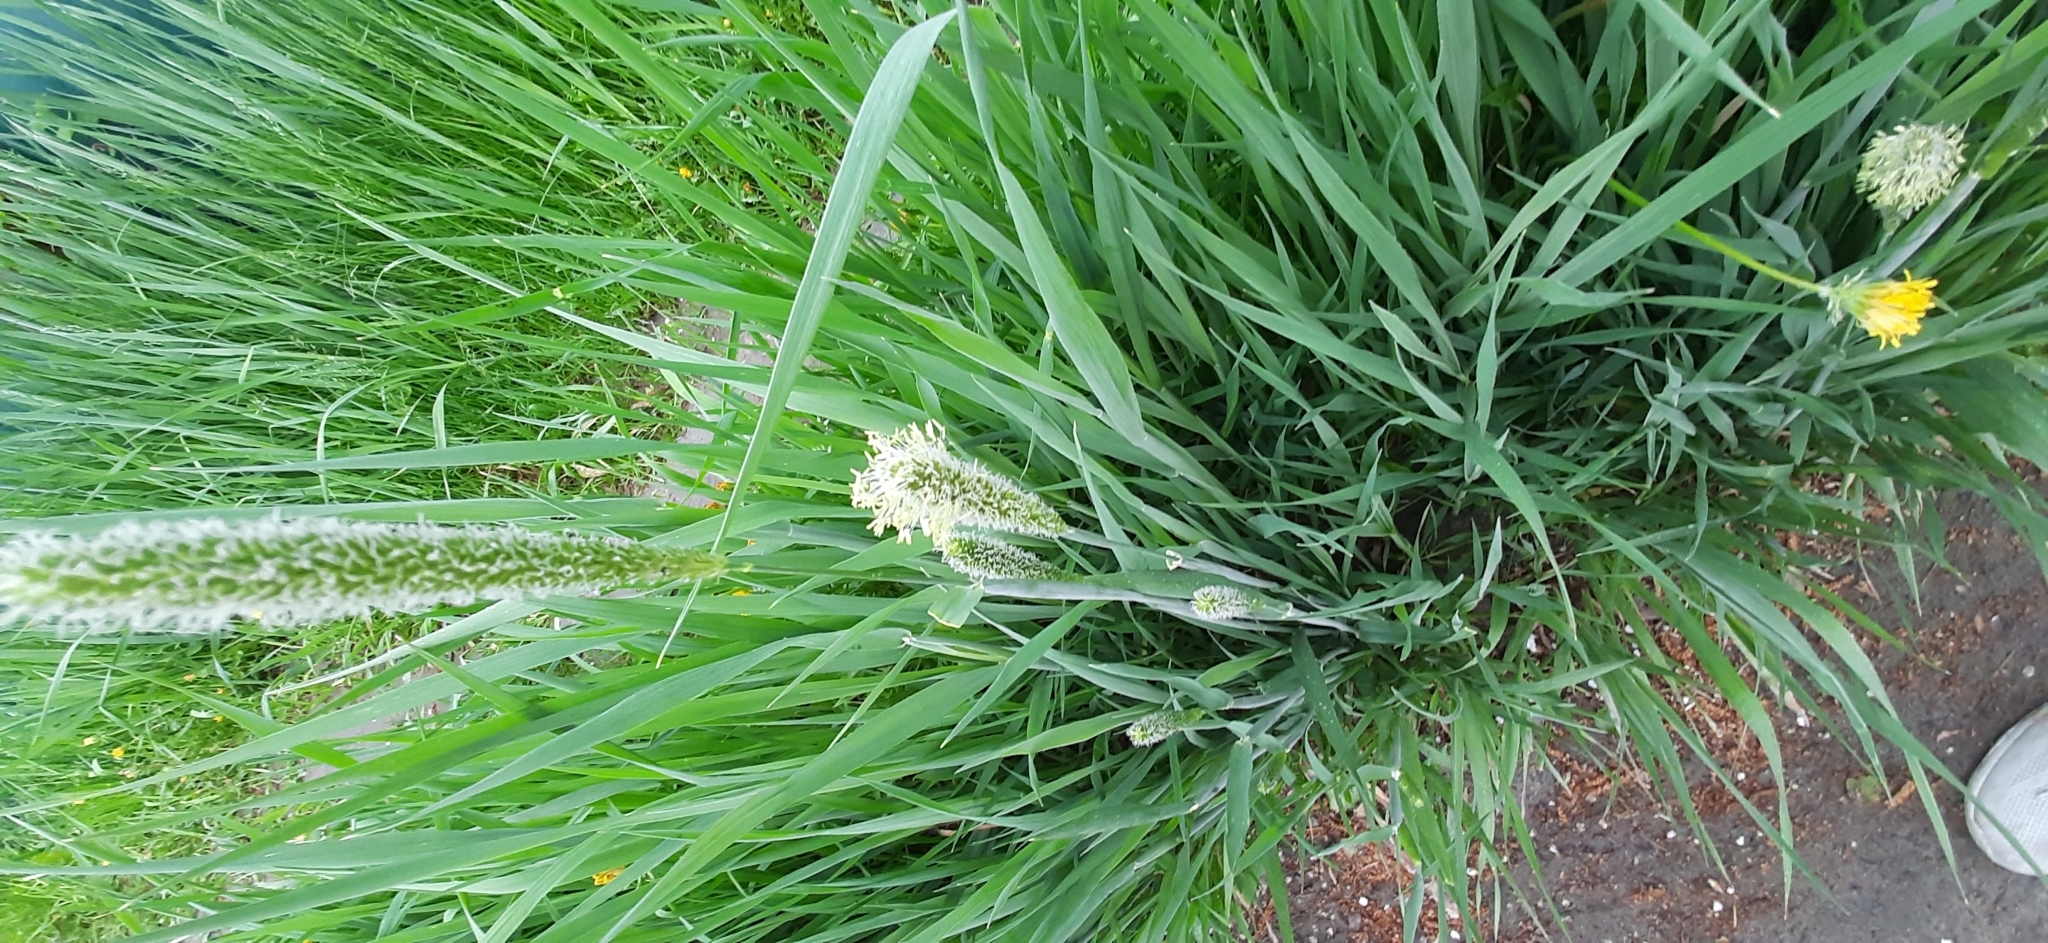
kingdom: Plantae
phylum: Tracheophyta
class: Liliopsida
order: Poales
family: Poaceae
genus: Alopecurus
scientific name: Alopecurus pratensis
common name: Meadow foxtail
